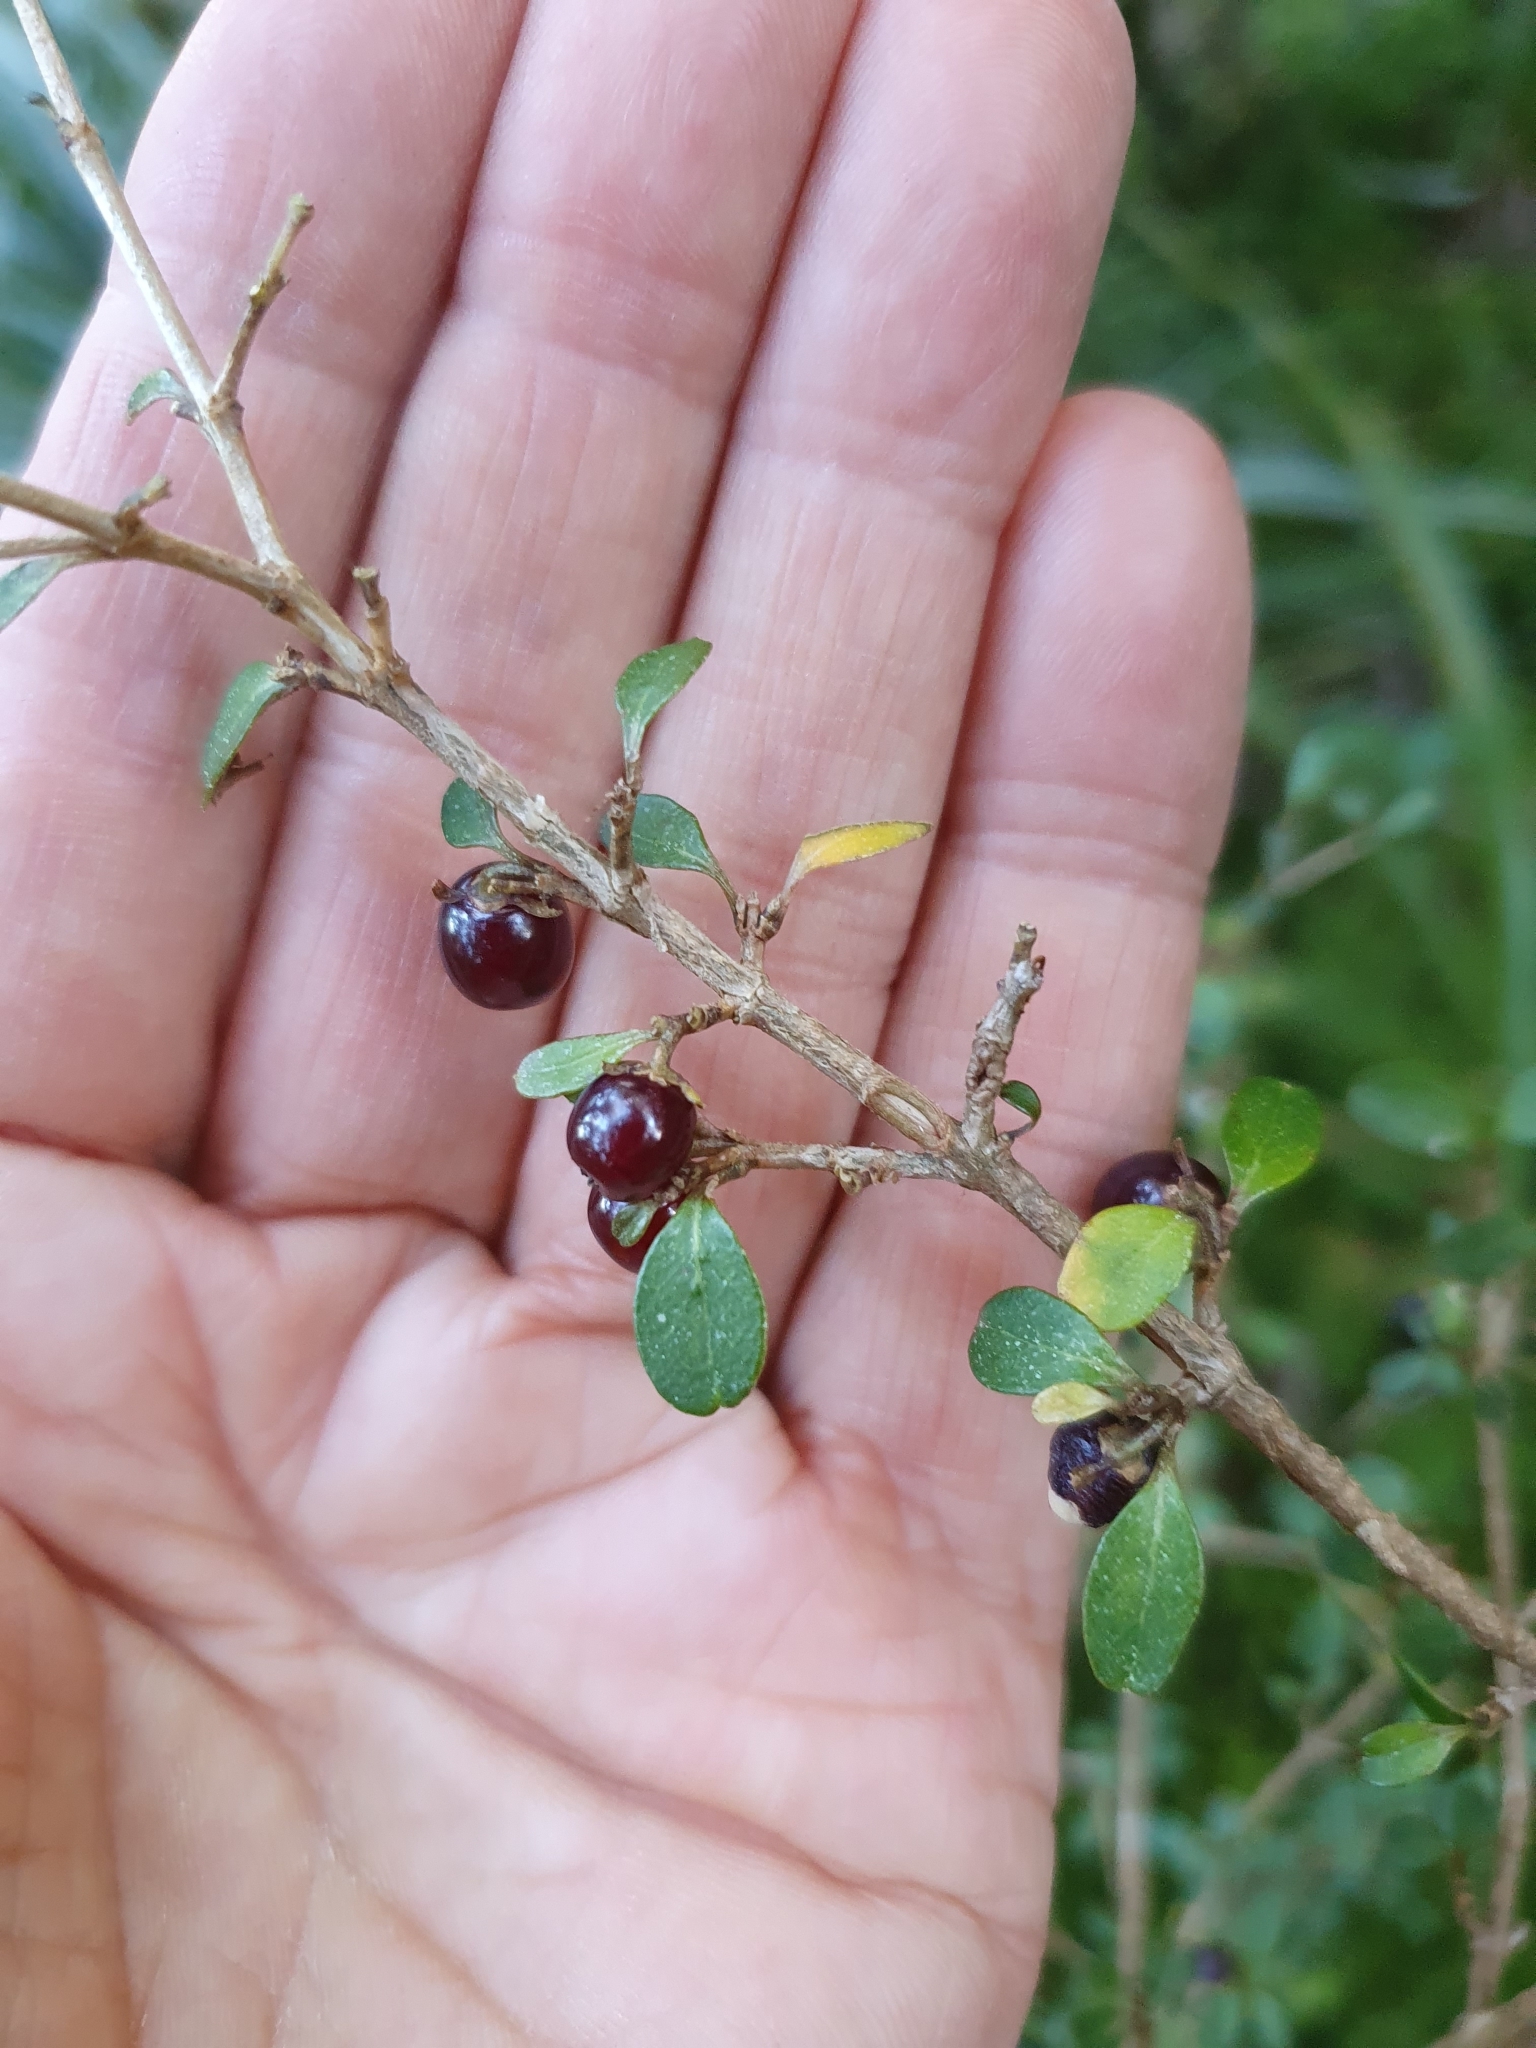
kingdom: Plantae
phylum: Tracheophyta
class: Magnoliopsida
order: Gentianales
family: Rubiaceae
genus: Coprosma
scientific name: Coprosma rhamnoides
